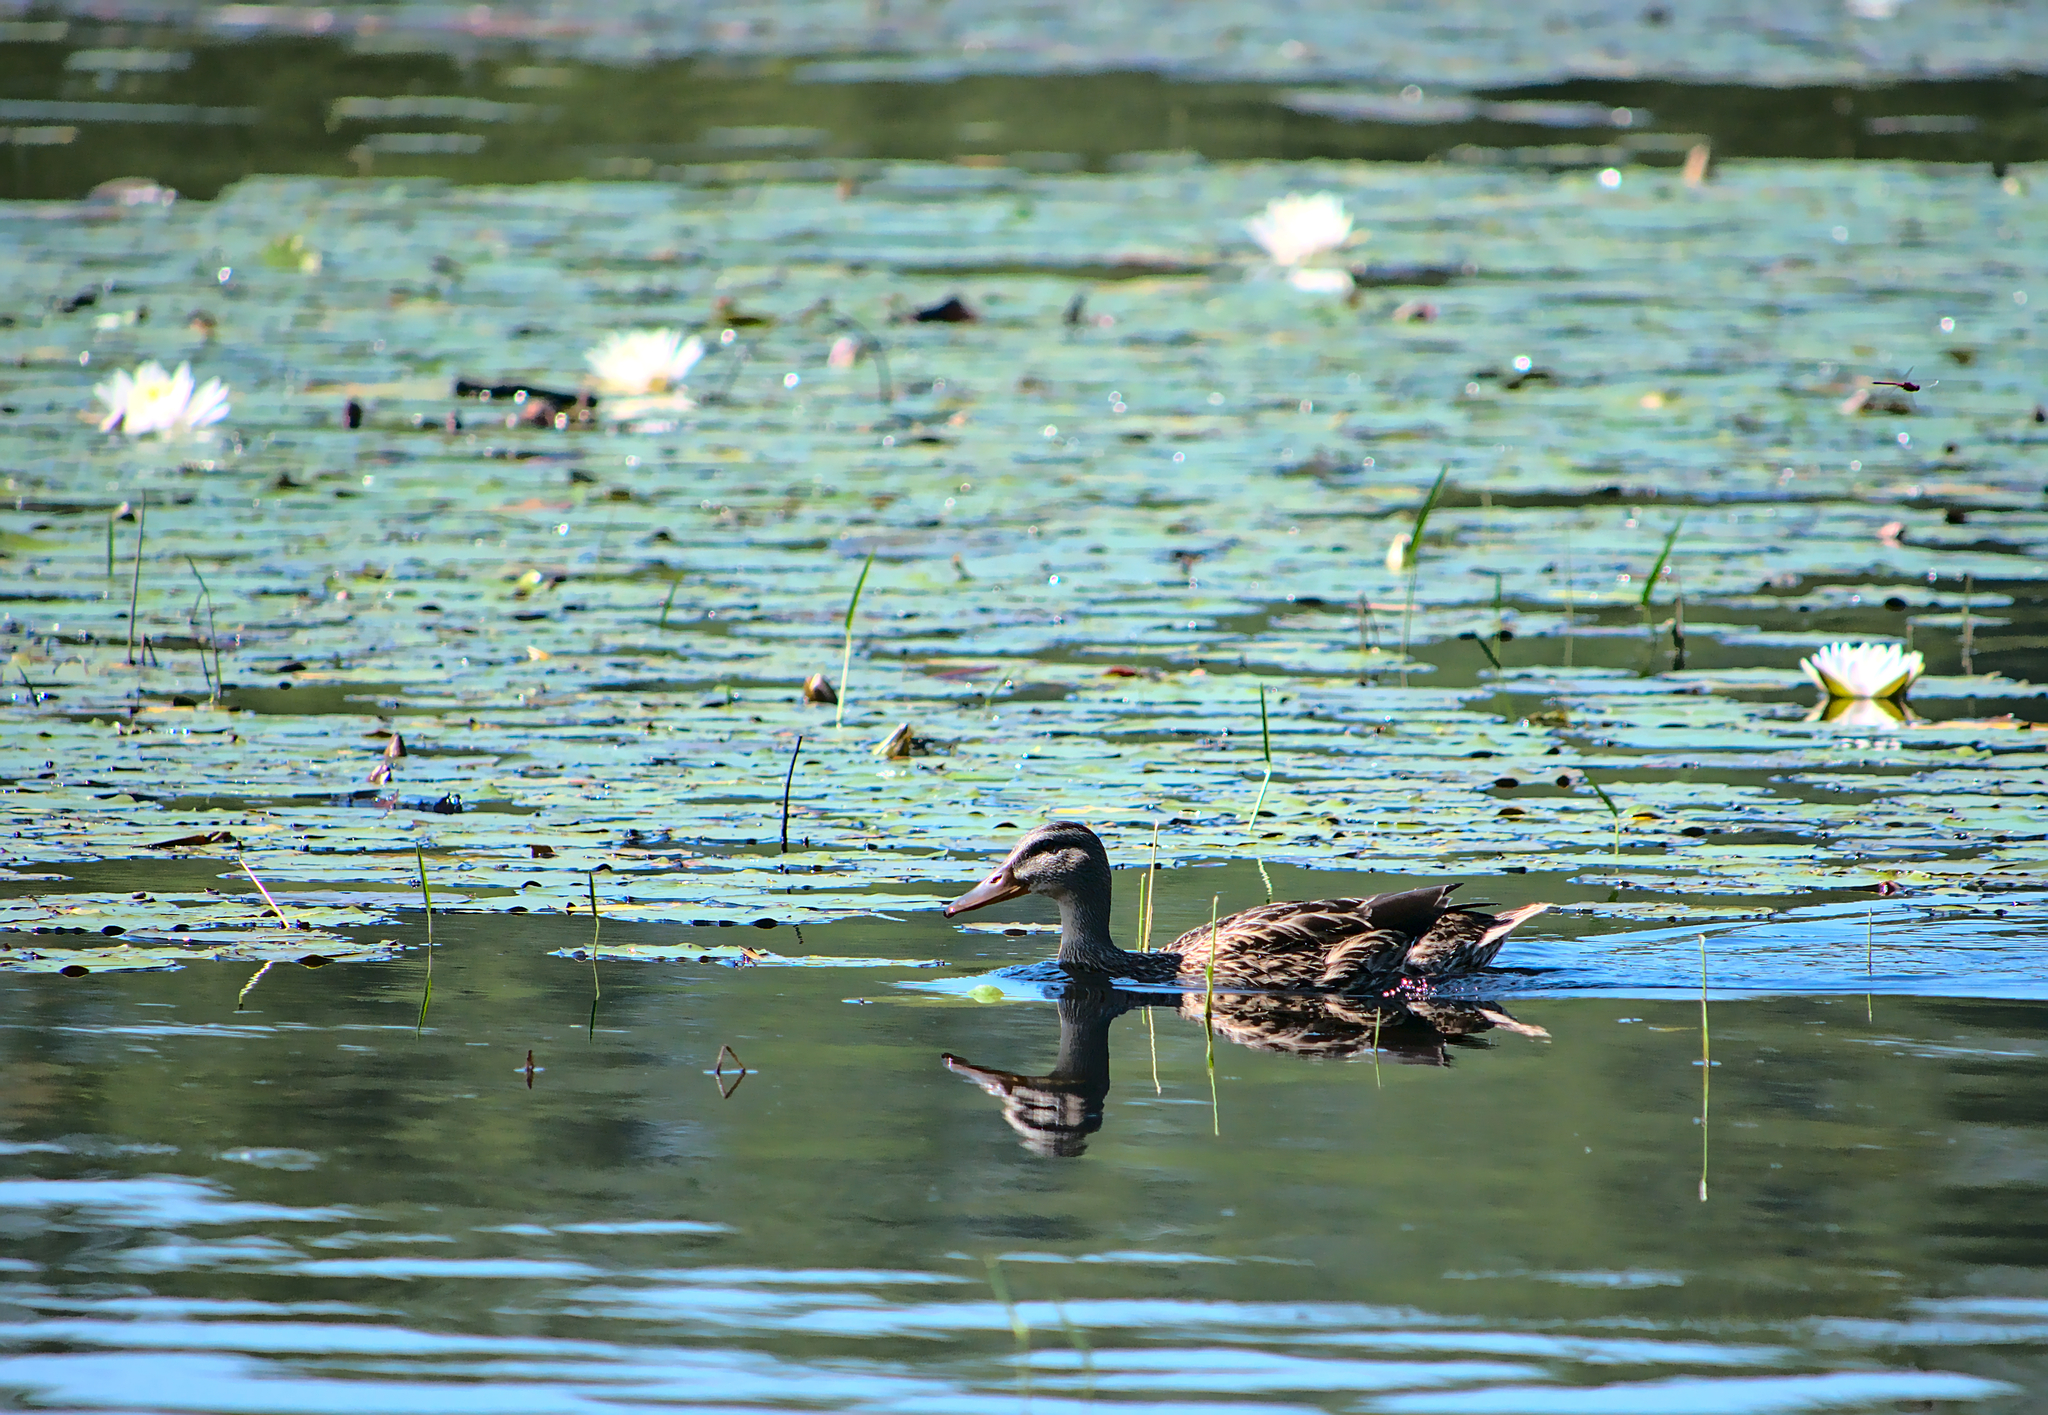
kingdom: Animalia
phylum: Chordata
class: Aves
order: Anseriformes
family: Anatidae
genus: Anas
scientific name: Anas platyrhynchos
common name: Mallard
